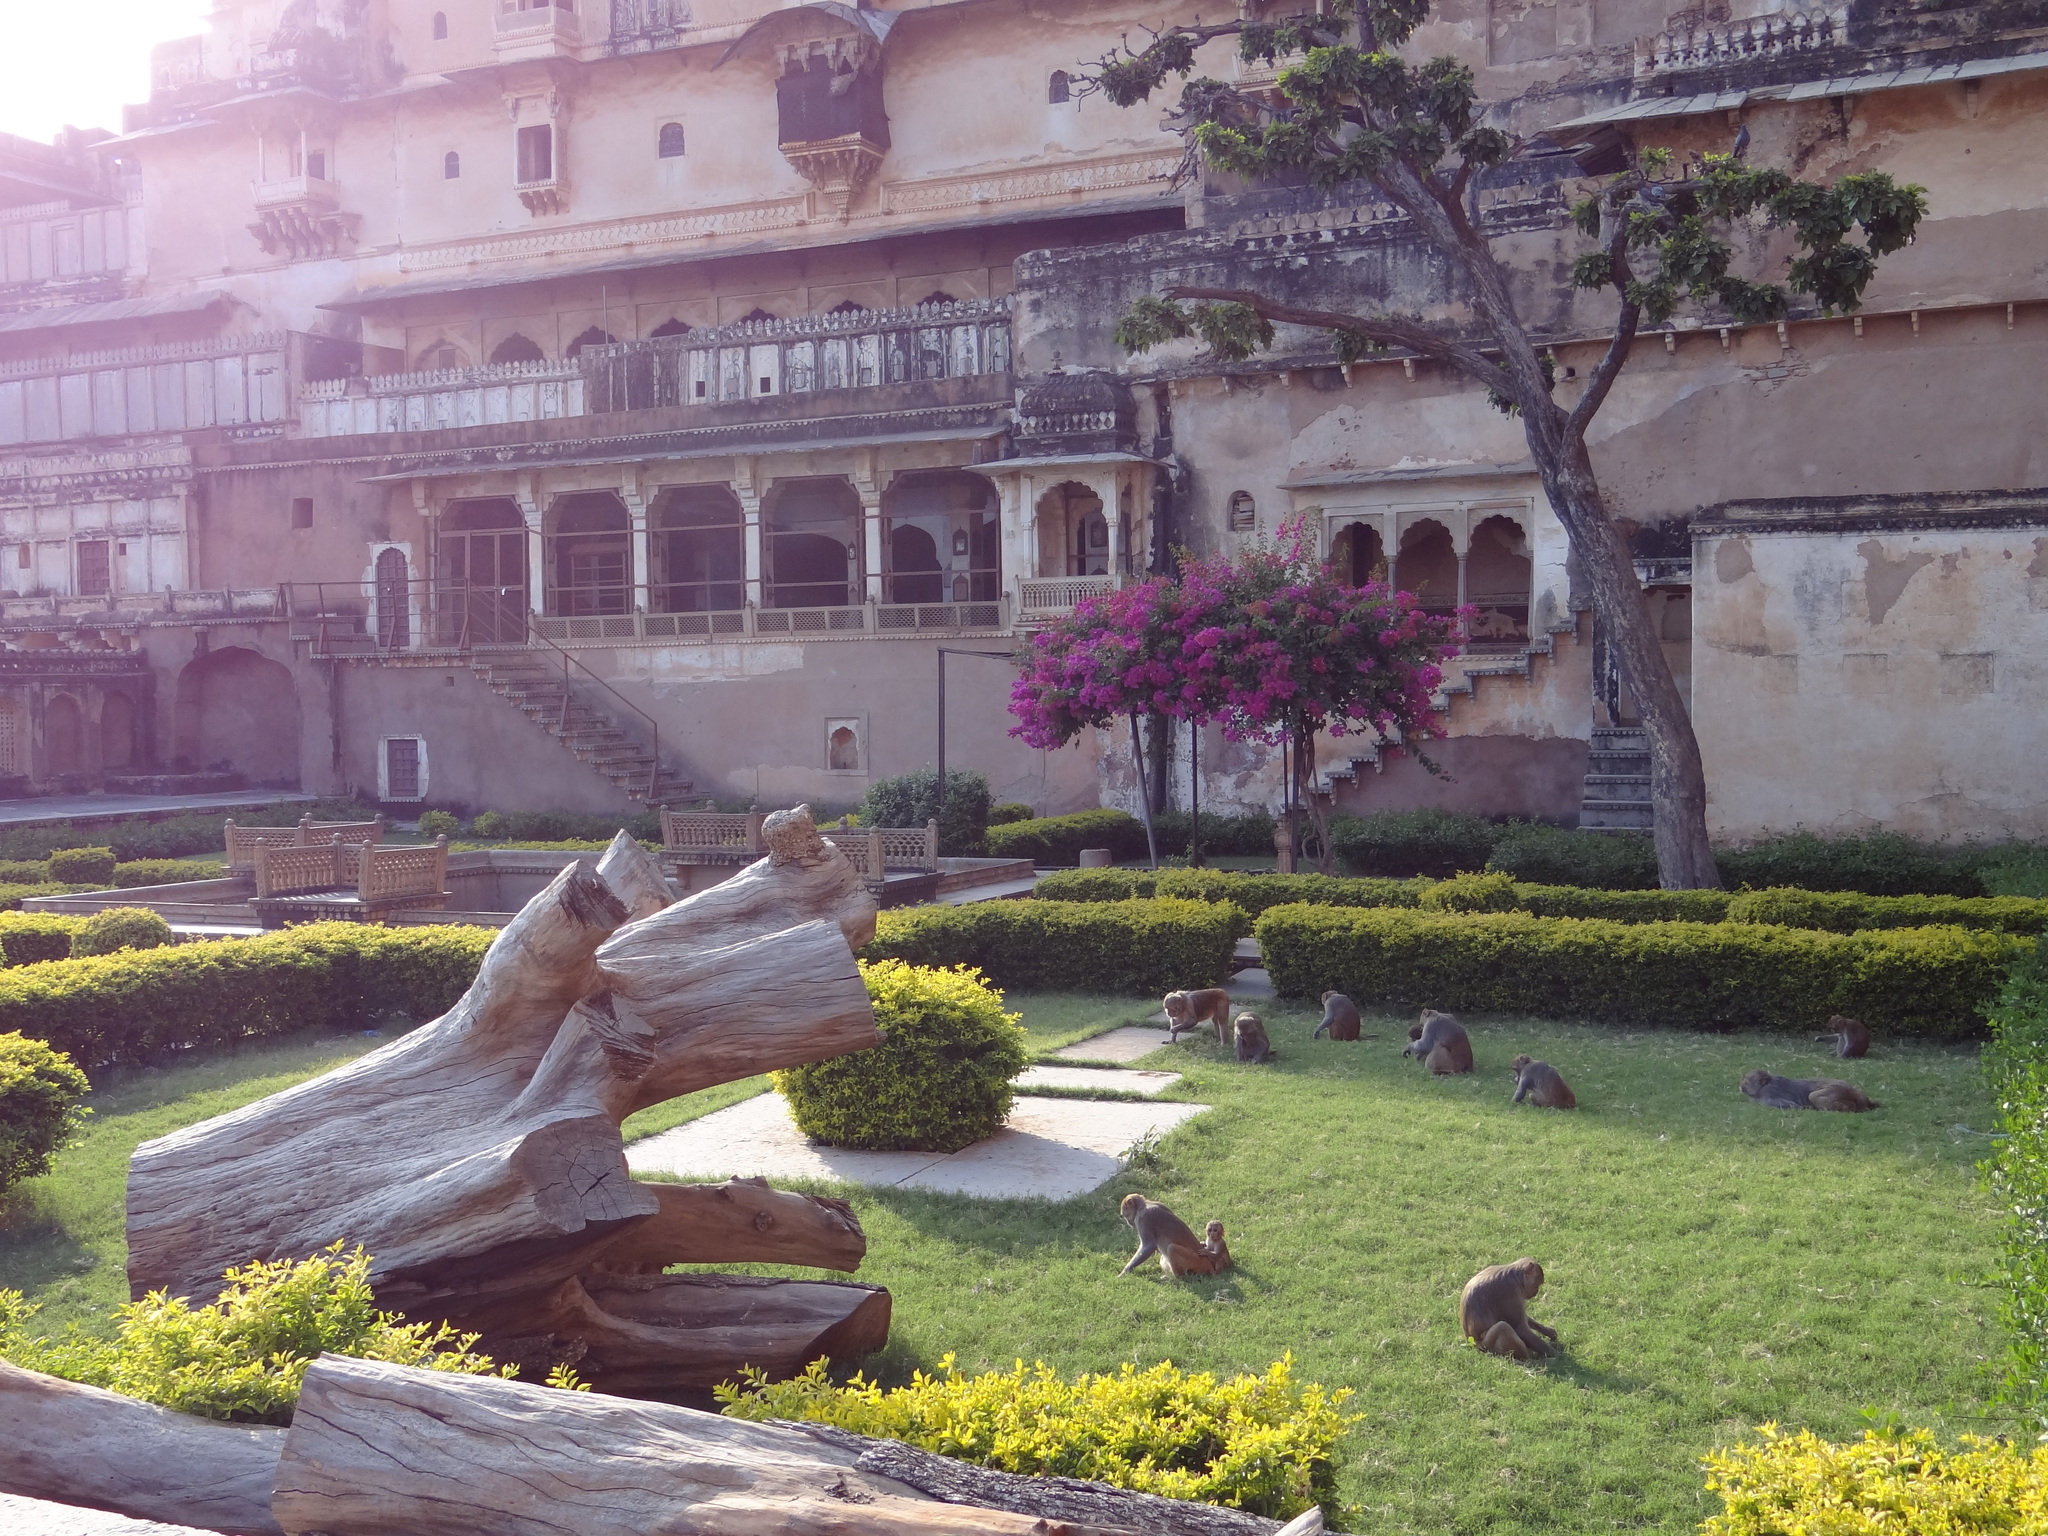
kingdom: Animalia
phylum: Chordata
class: Mammalia
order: Primates
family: Cercopithecidae
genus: Macaca
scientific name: Macaca mulatta
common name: Rhesus monkey
